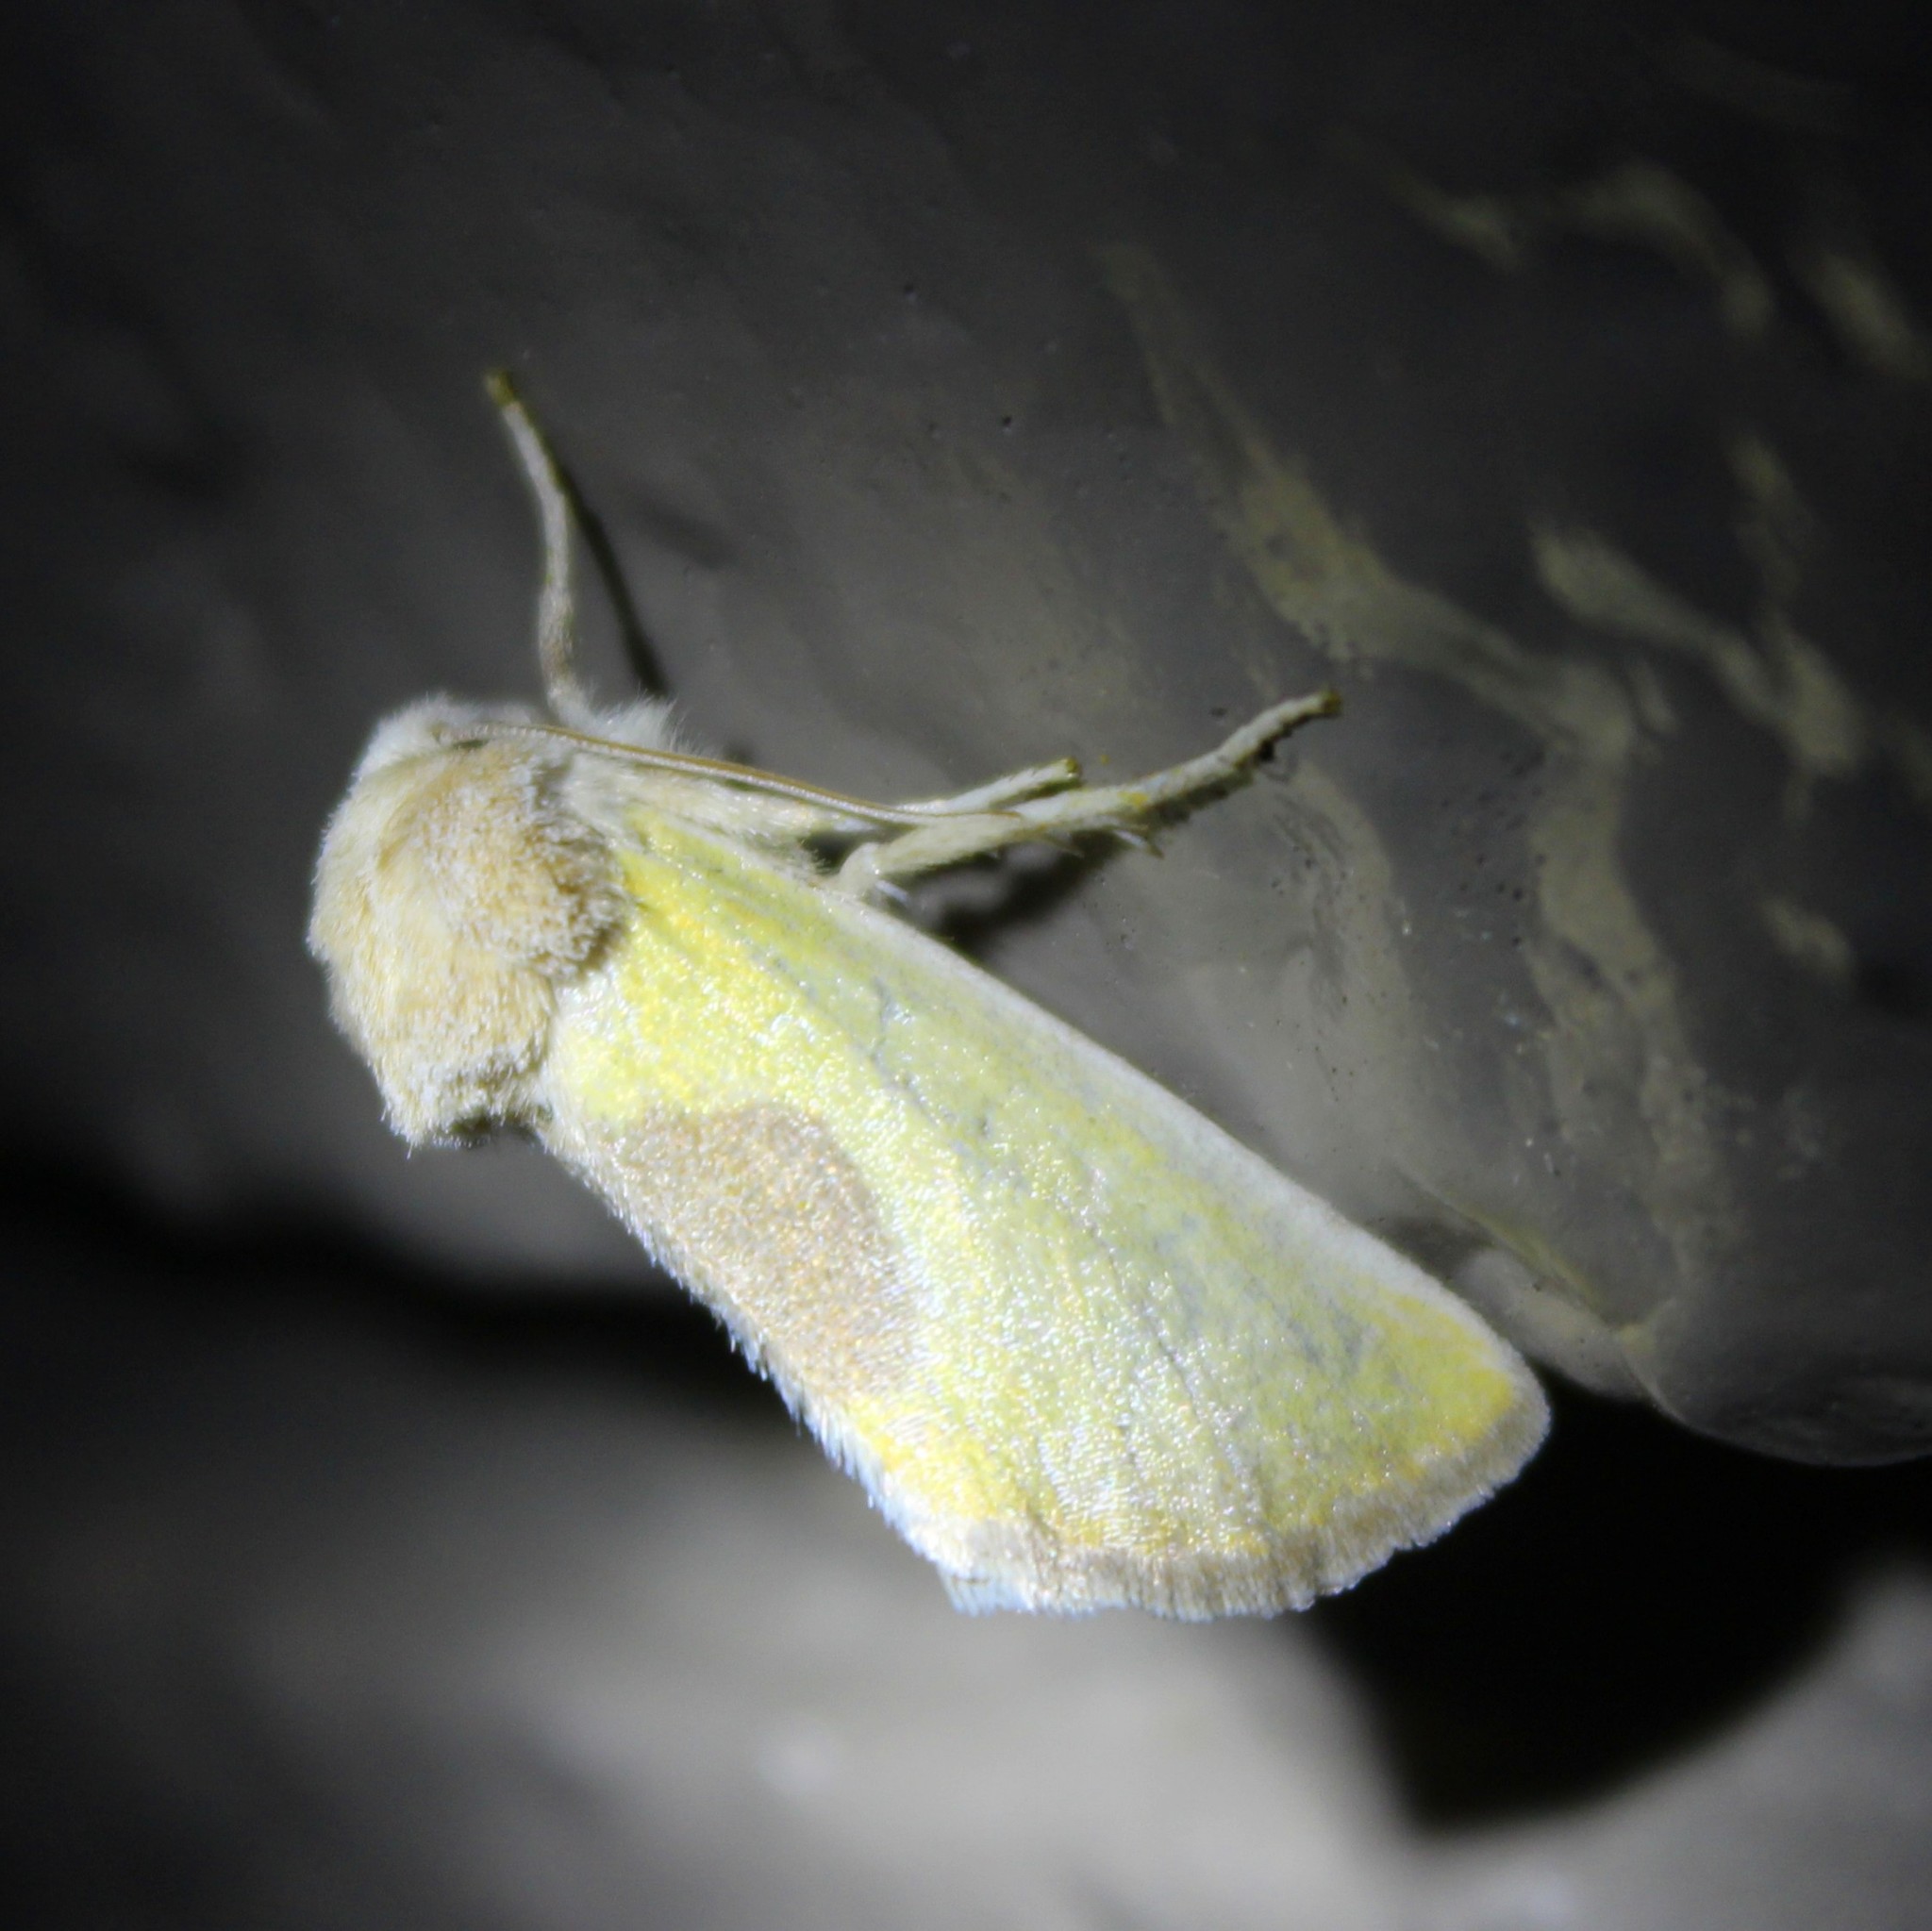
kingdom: Animalia
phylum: Arthropoda
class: Insecta
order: Lepidoptera
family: Noctuidae
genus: Stiria
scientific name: Stiria consuela
